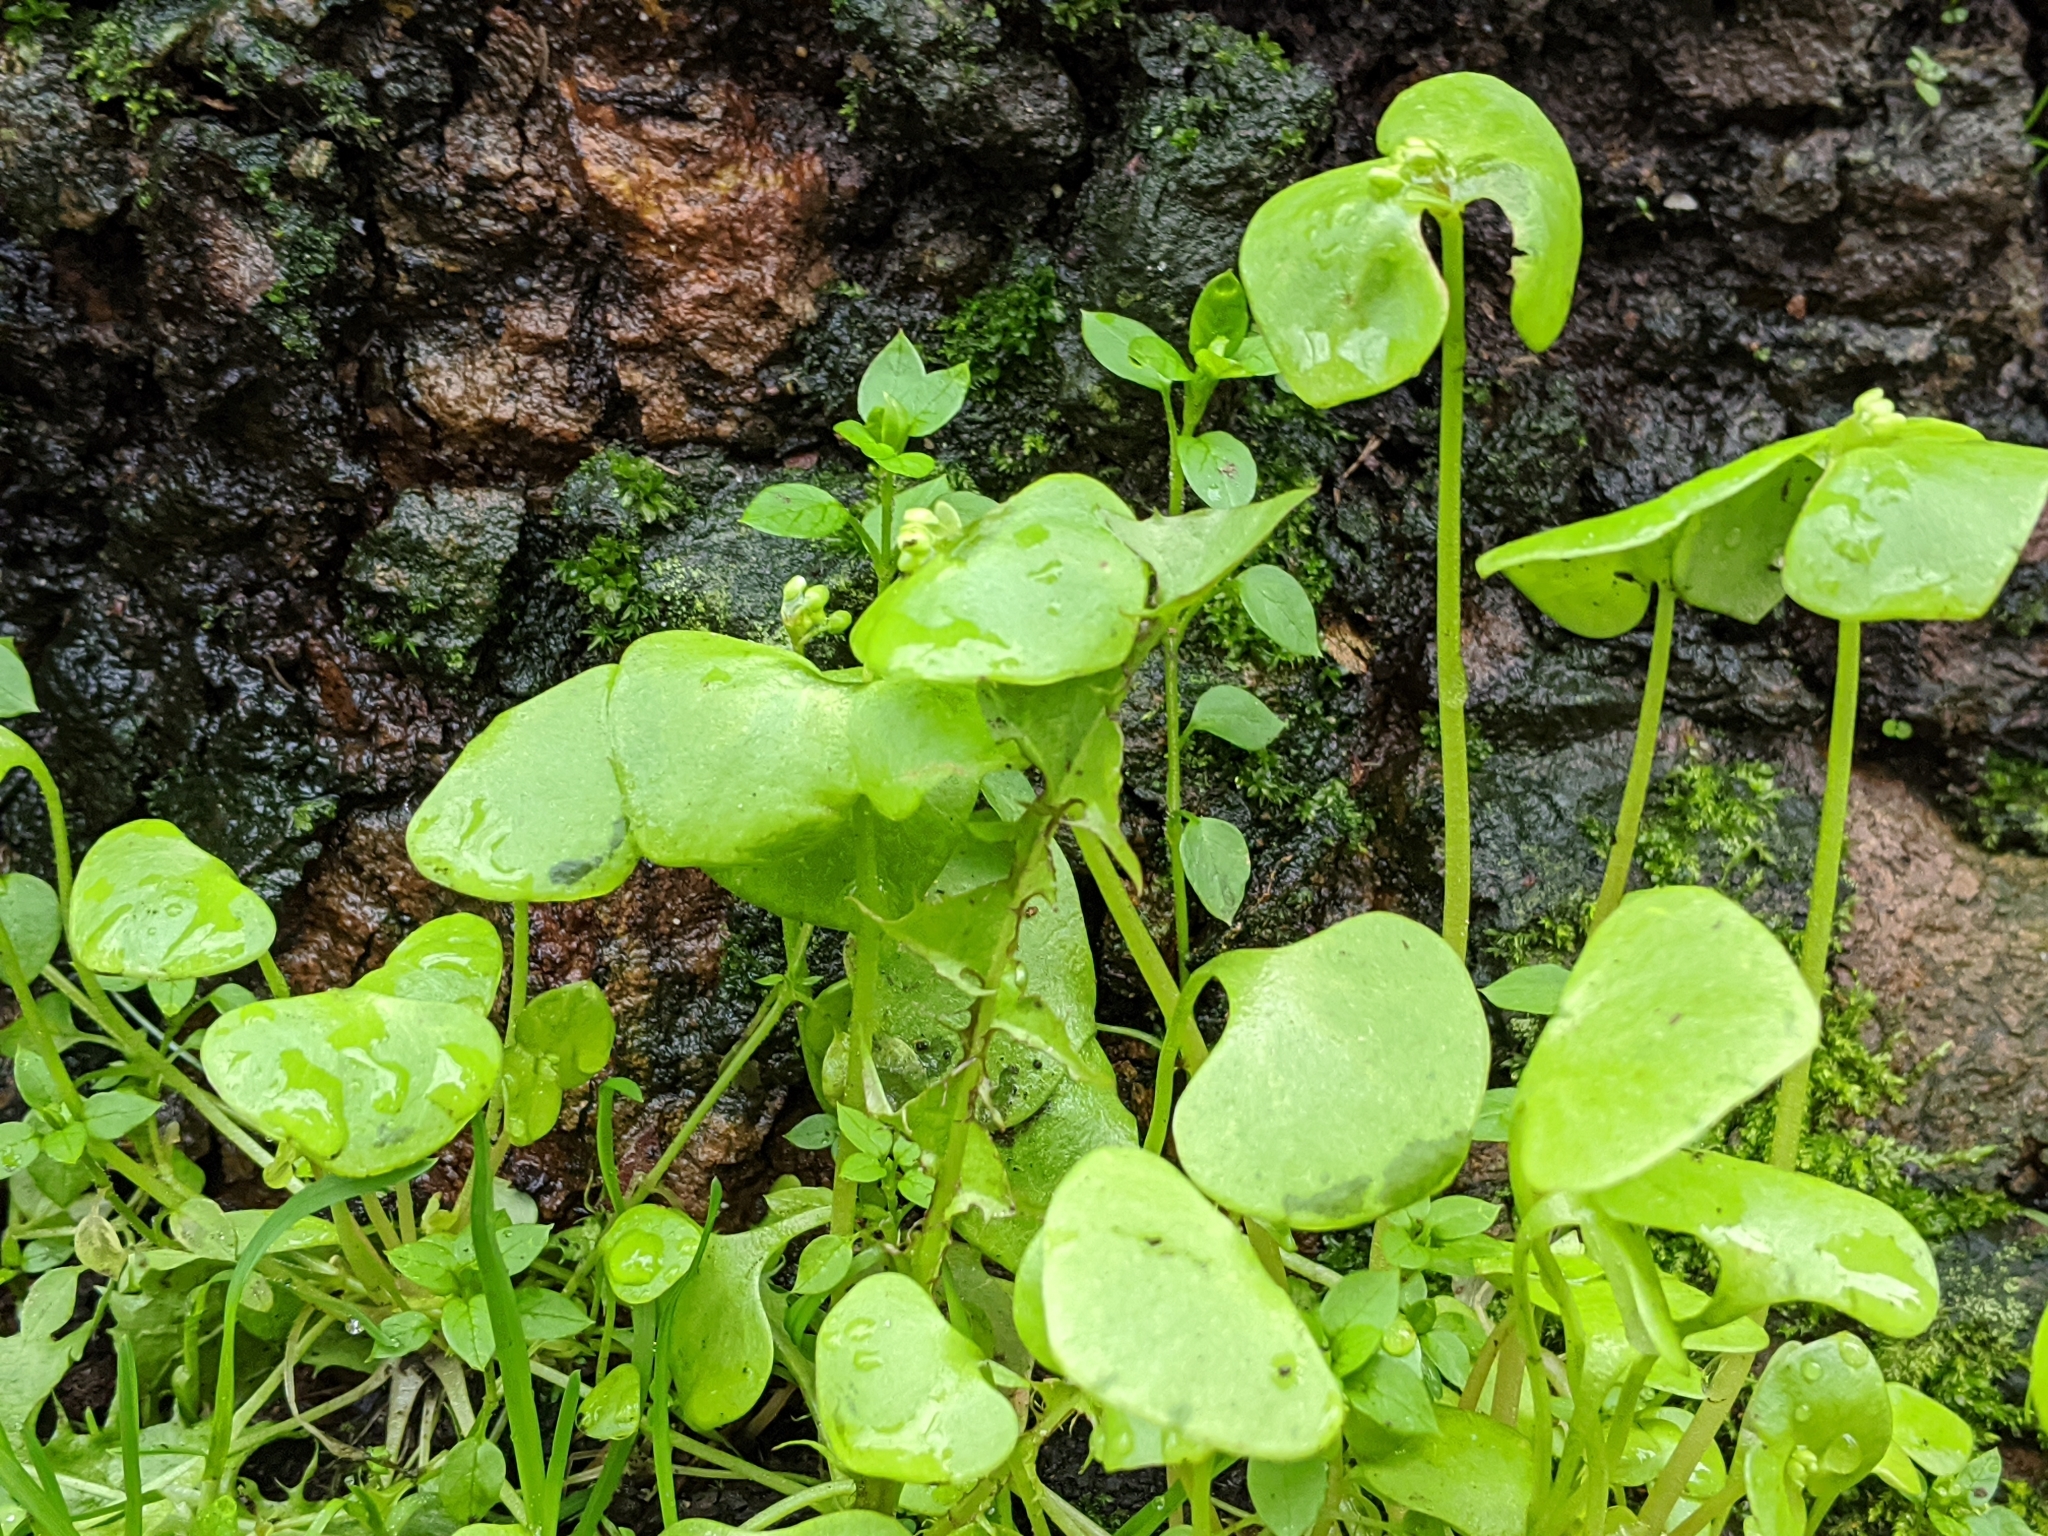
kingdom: Plantae
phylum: Tracheophyta
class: Magnoliopsida
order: Caryophyllales
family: Montiaceae
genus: Claytonia
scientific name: Claytonia perfoliata
